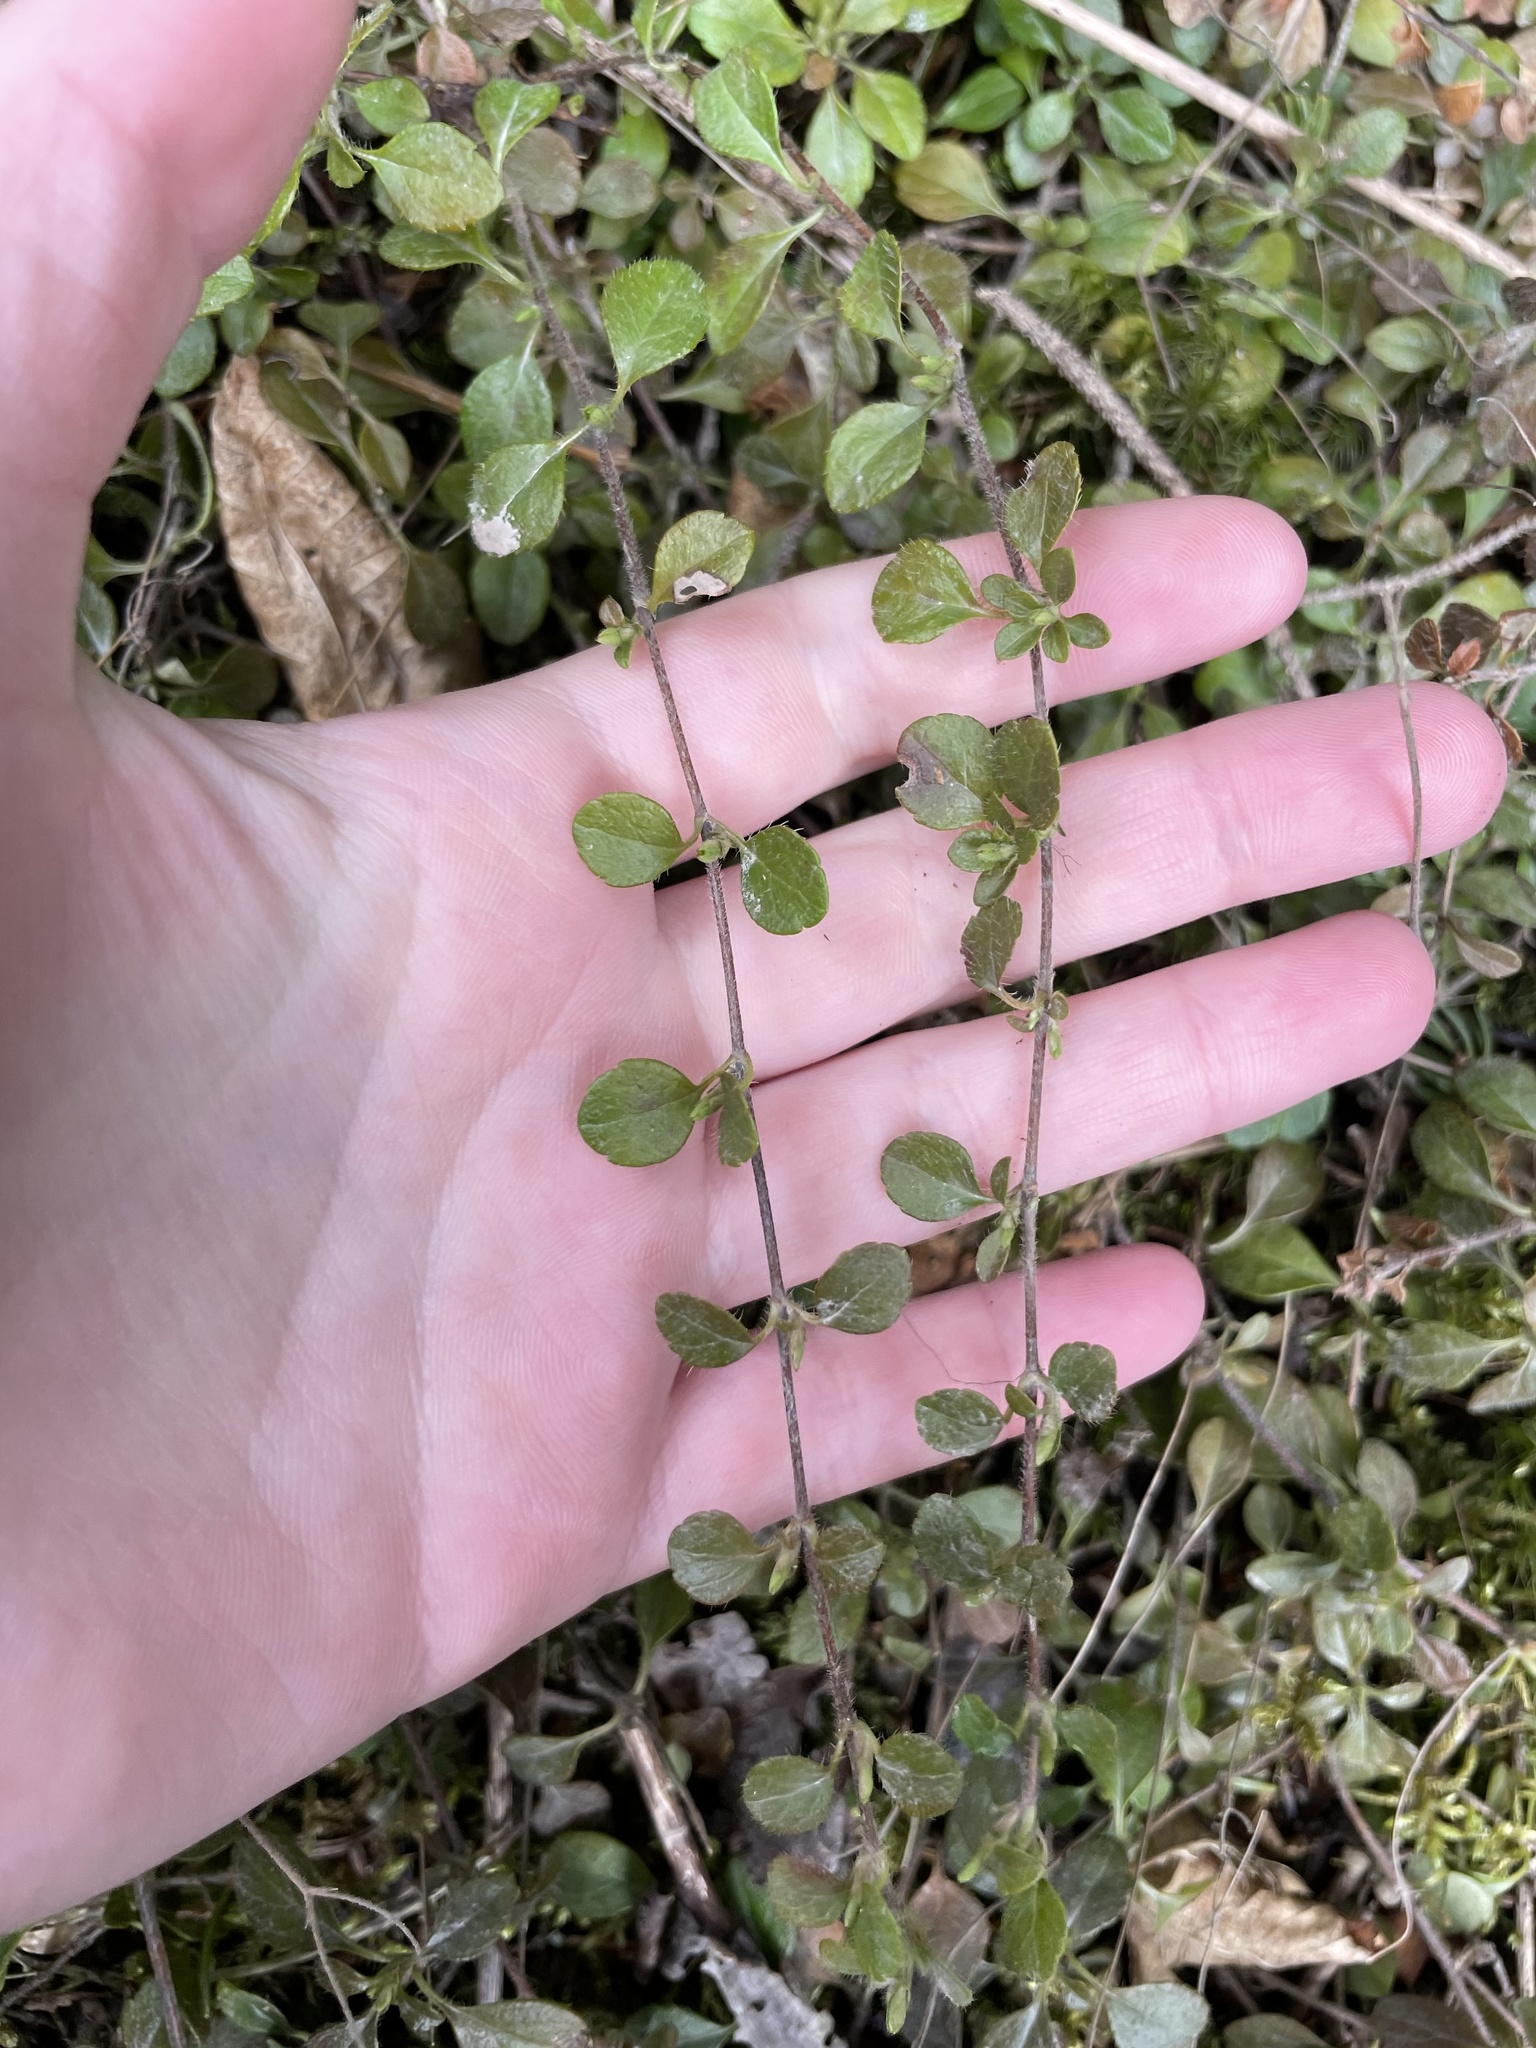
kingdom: Plantae
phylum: Tracheophyta
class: Magnoliopsida
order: Dipsacales
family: Caprifoliaceae
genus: Linnaea
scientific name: Linnaea borealis
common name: Twinflower
